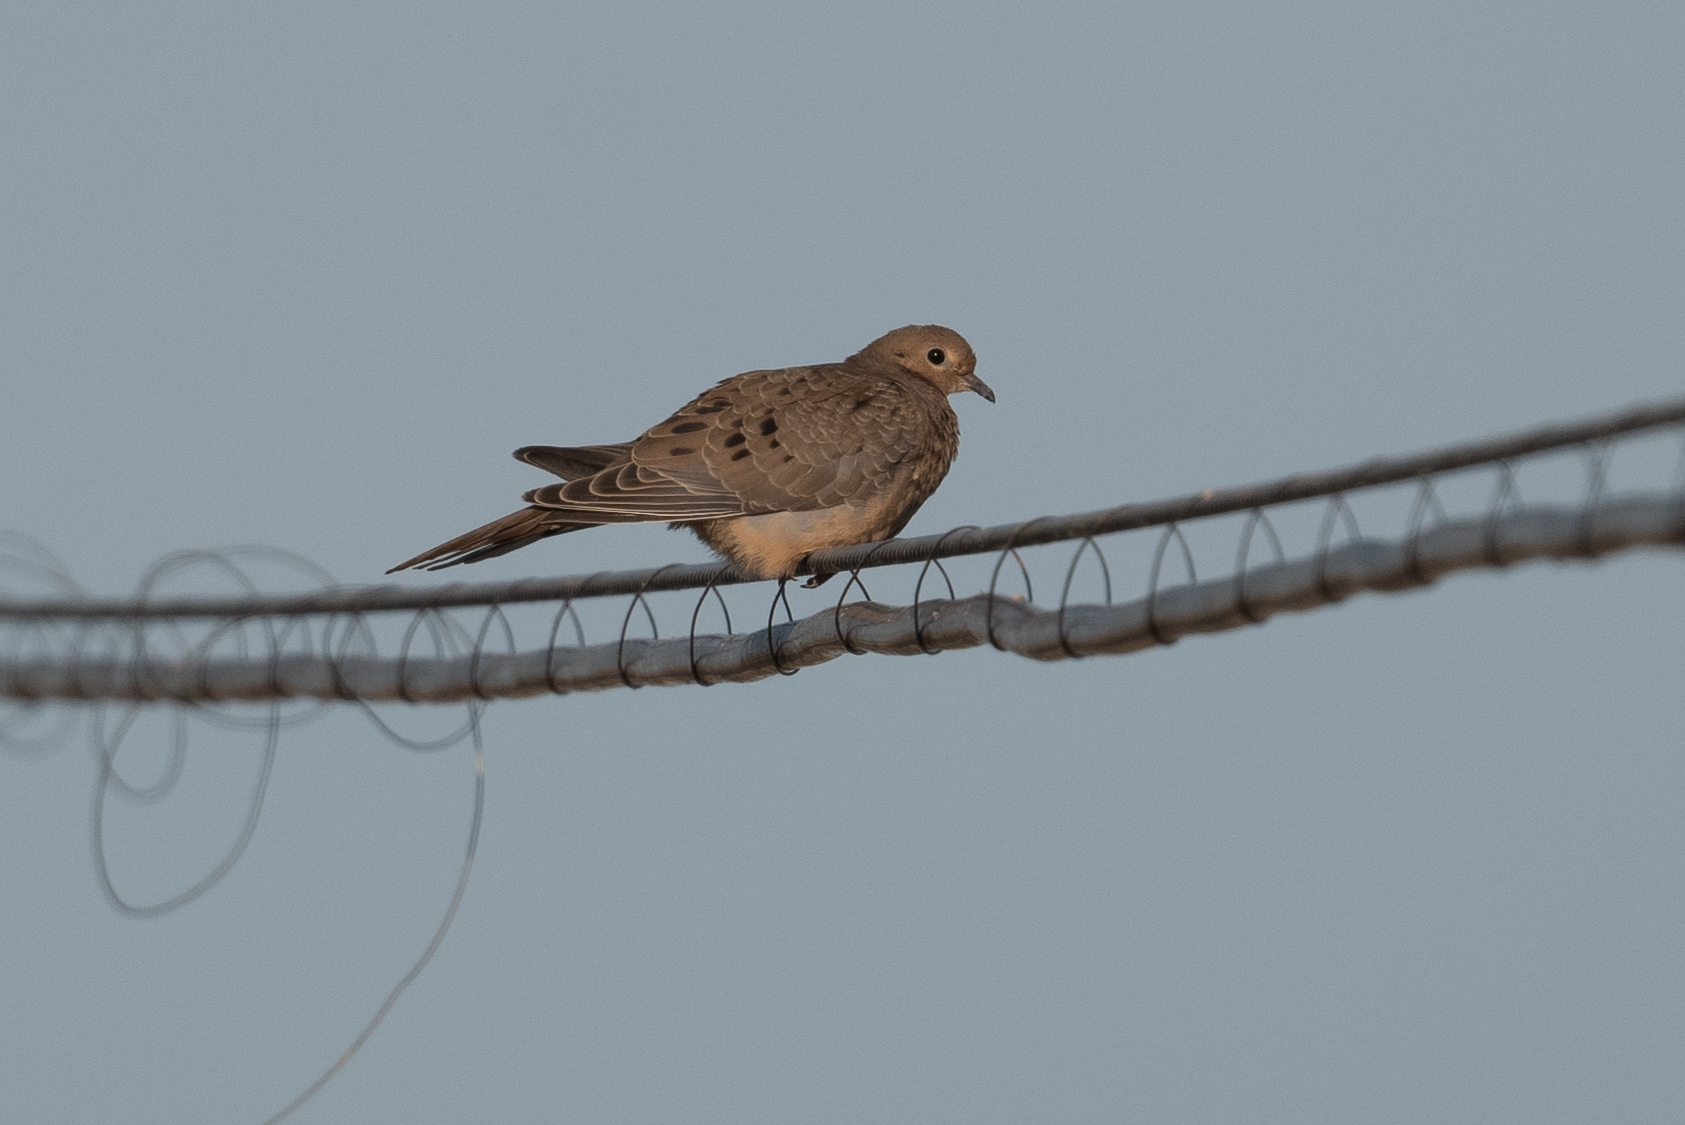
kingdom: Animalia
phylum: Chordata
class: Aves
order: Columbiformes
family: Columbidae
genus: Zenaida
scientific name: Zenaida macroura
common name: Mourning dove
